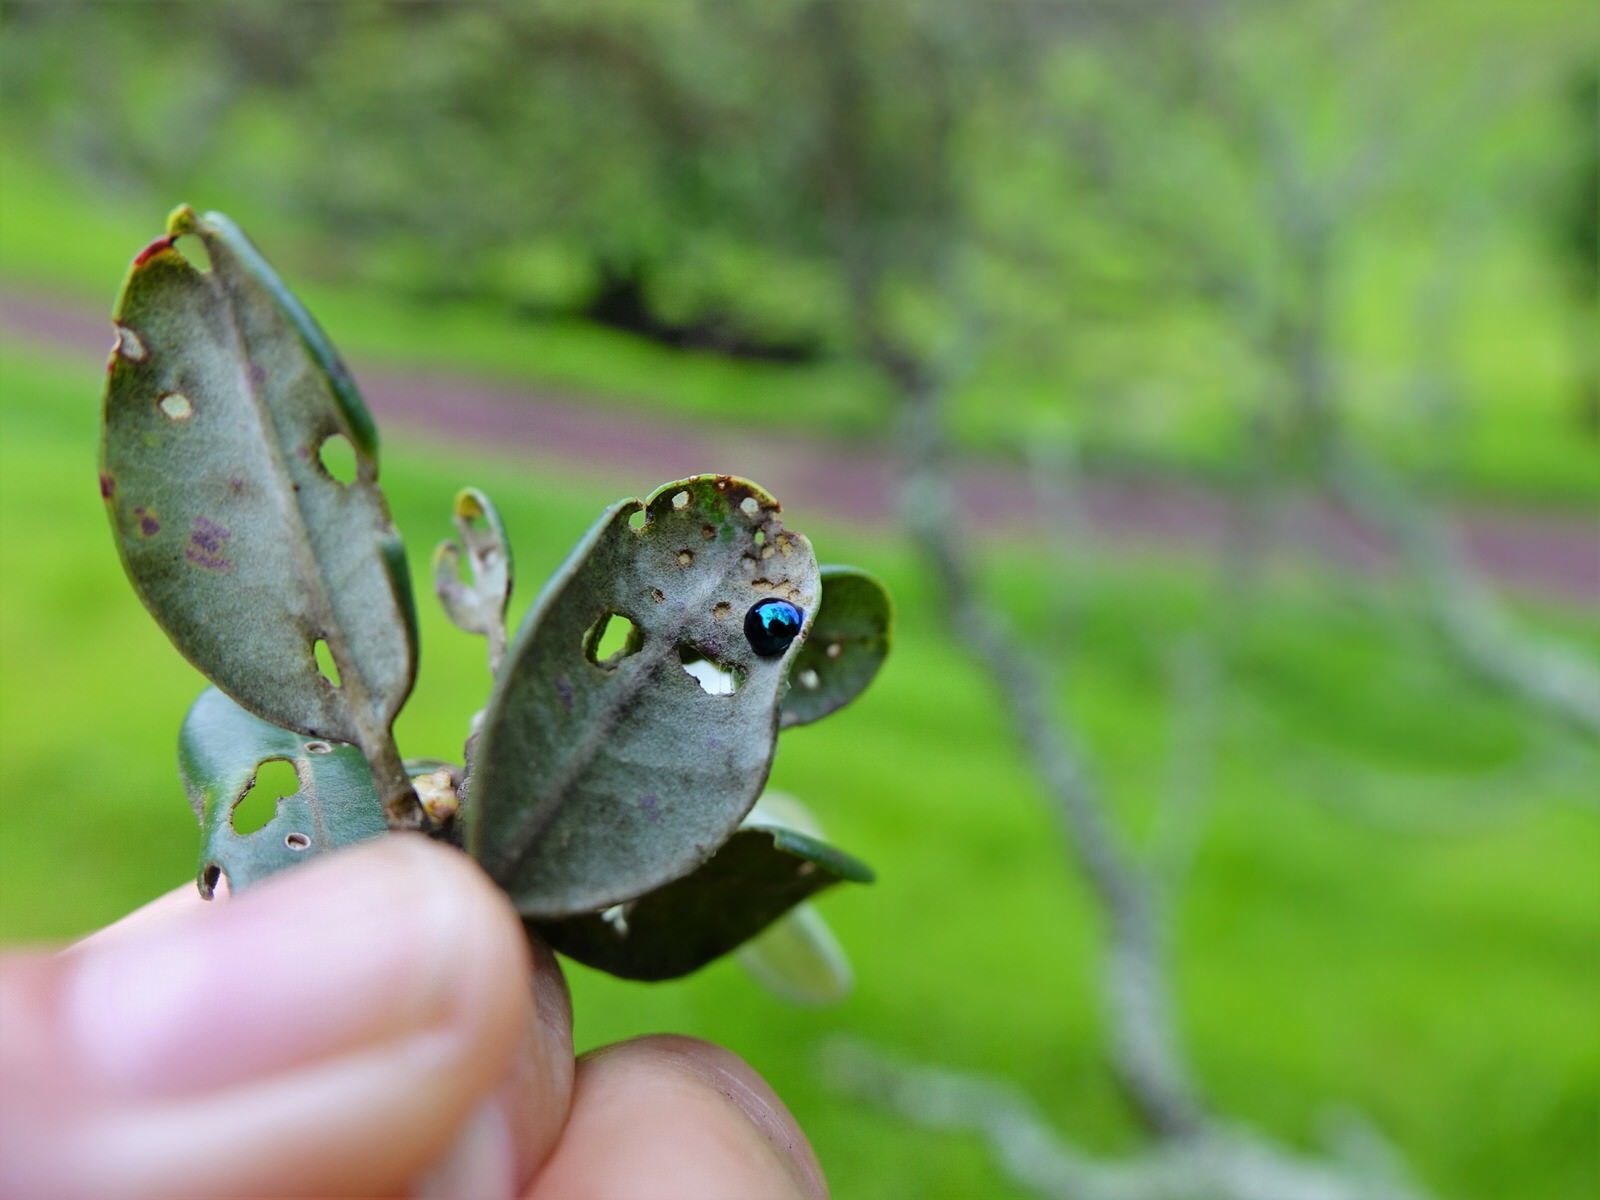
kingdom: Animalia
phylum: Arthropoda
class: Insecta
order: Coleoptera
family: Coccinellidae
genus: Halmus
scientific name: Halmus chalybeus
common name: Steel blue ladybird beetle
